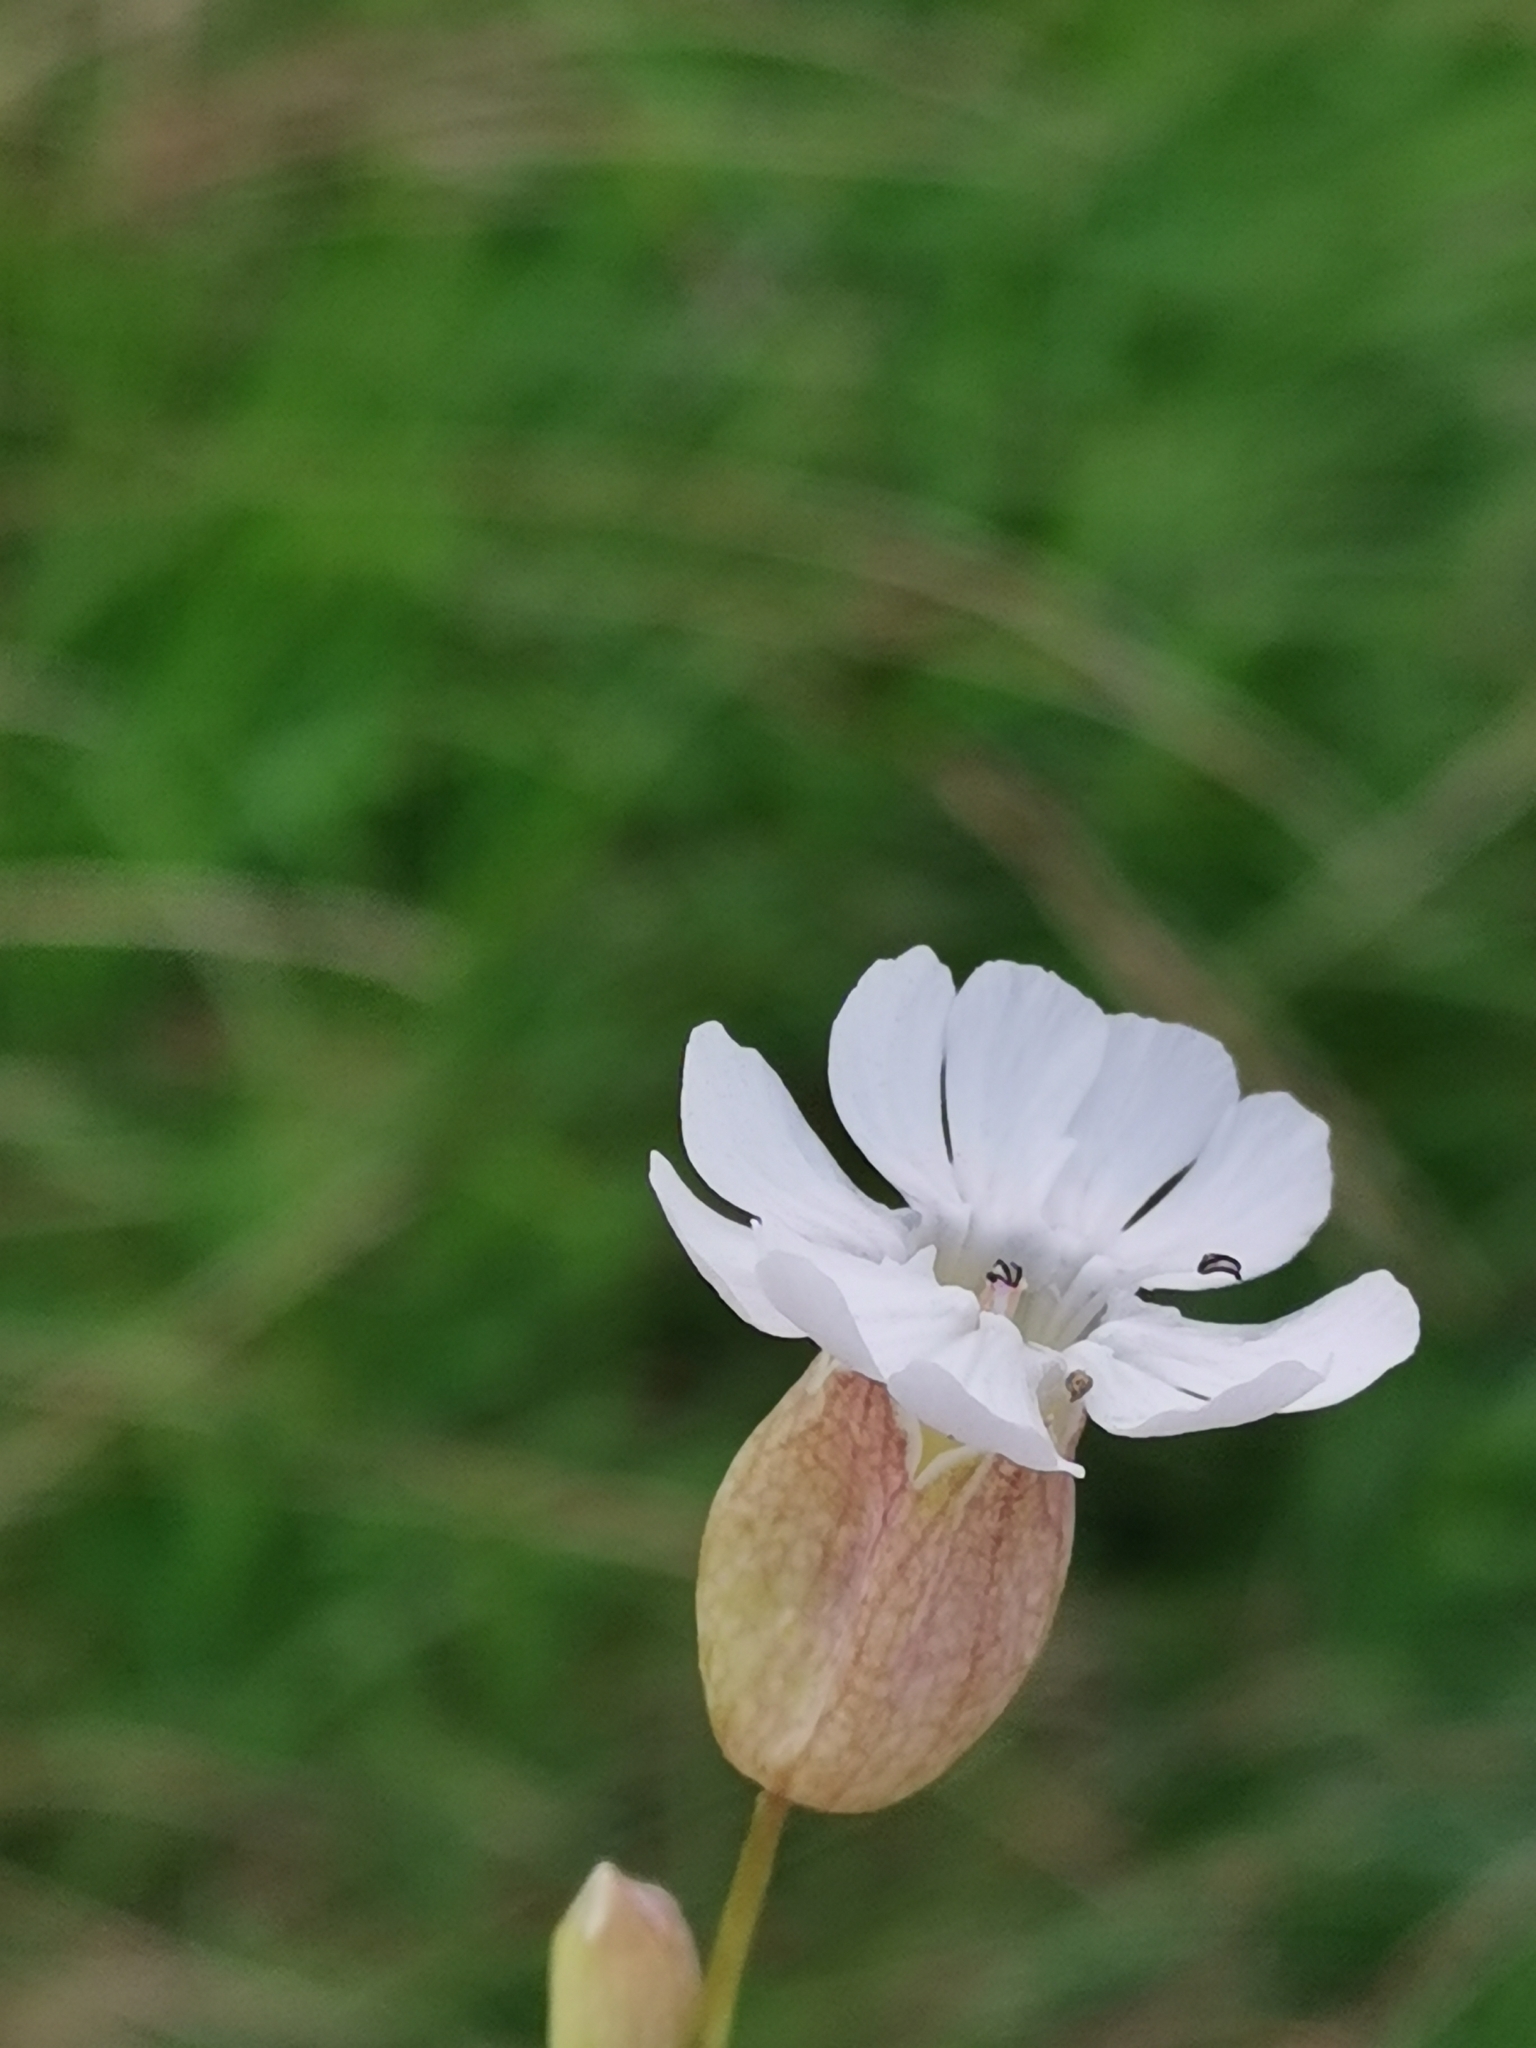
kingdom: Plantae
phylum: Tracheophyta
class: Magnoliopsida
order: Caryophyllales
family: Caryophyllaceae
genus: Silene
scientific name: Silene uniflora
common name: Sea campion
